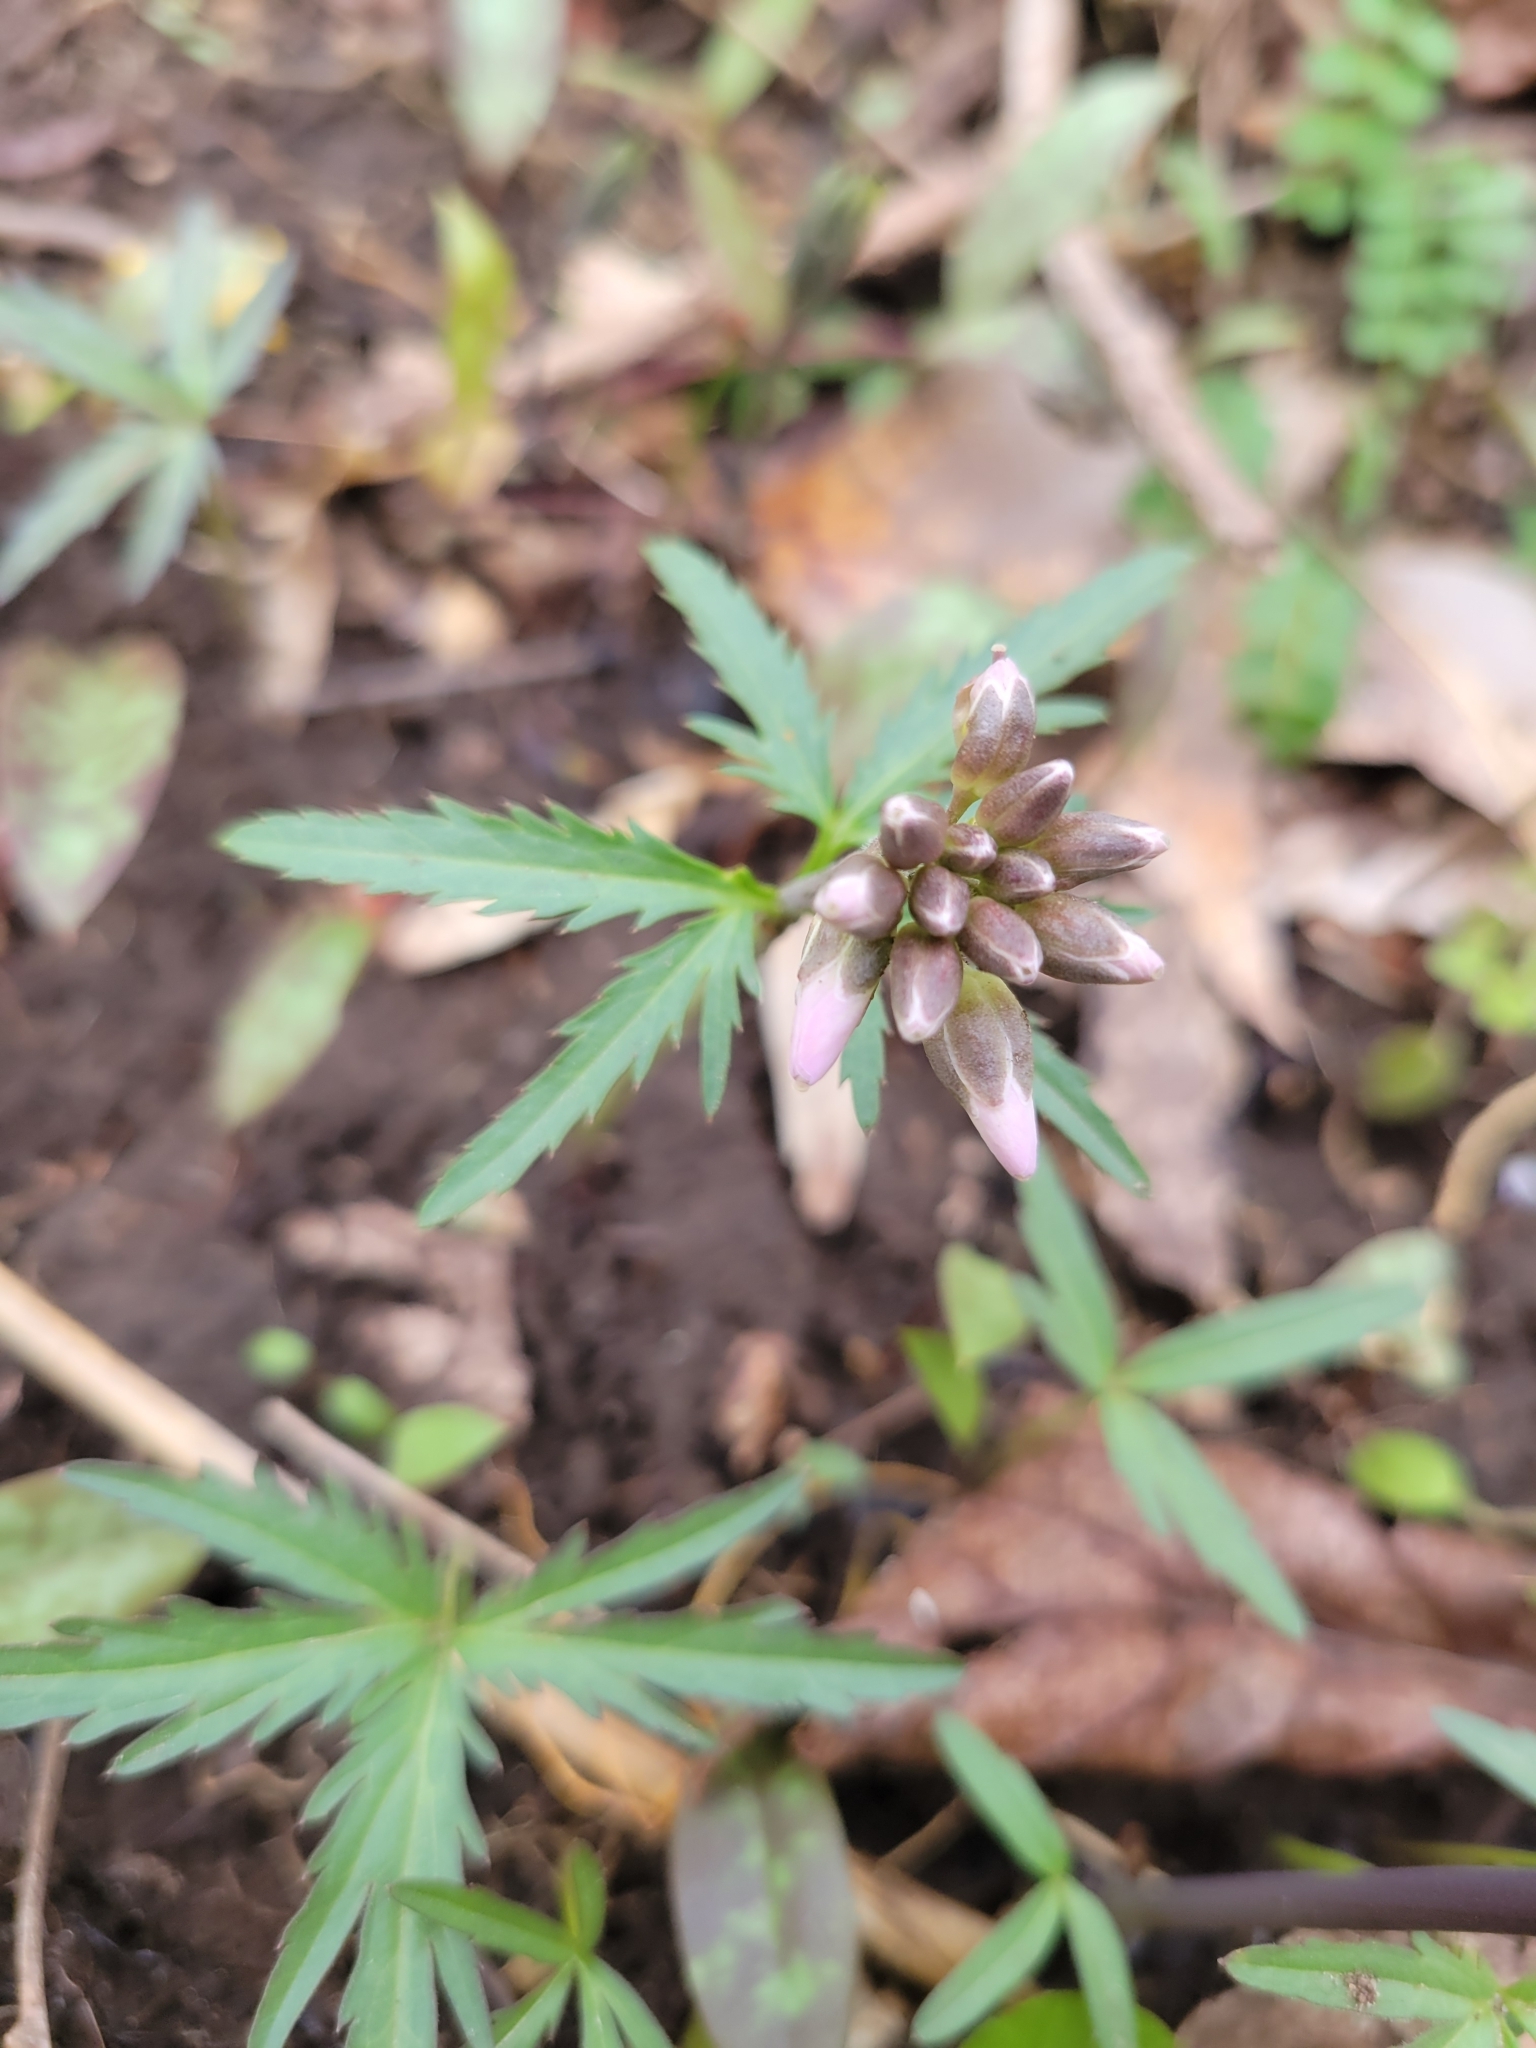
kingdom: Plantae
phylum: Tracheophyta
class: Magnoliopsida
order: Brassicales
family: Brassicaceae
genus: Cardamine
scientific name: Cardamine concatenata
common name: Cut-leaf toothcup
